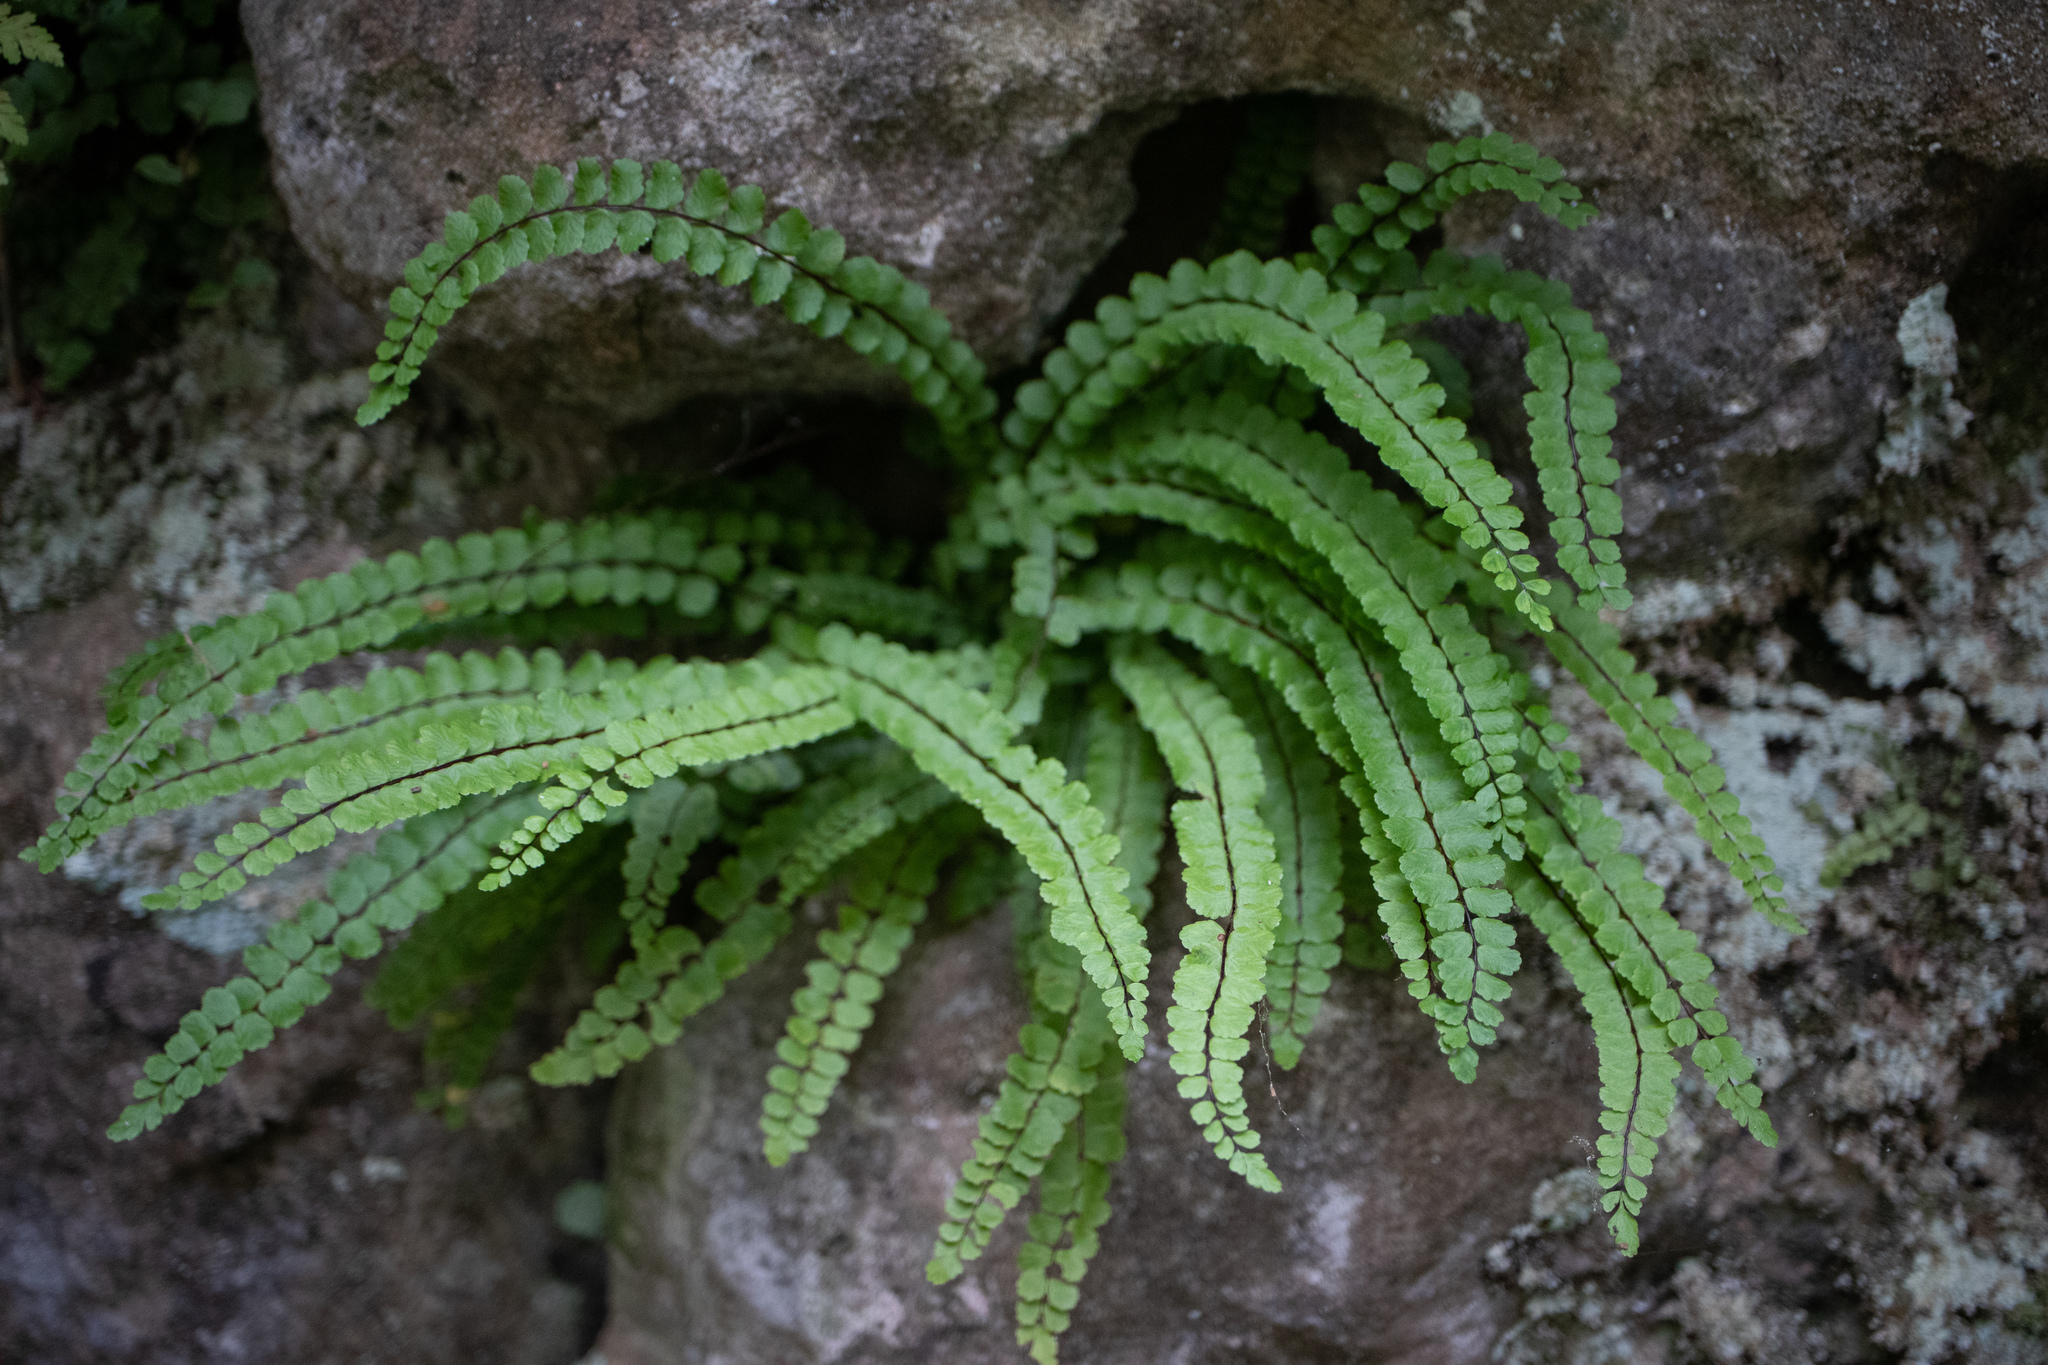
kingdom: Plantae
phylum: Tracheophyta
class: Polypodiopsida
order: Polypodiales
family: Aspleniaceae
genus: Asplenium
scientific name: Asplenium trichomanes
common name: Maidenhair spleenwort
